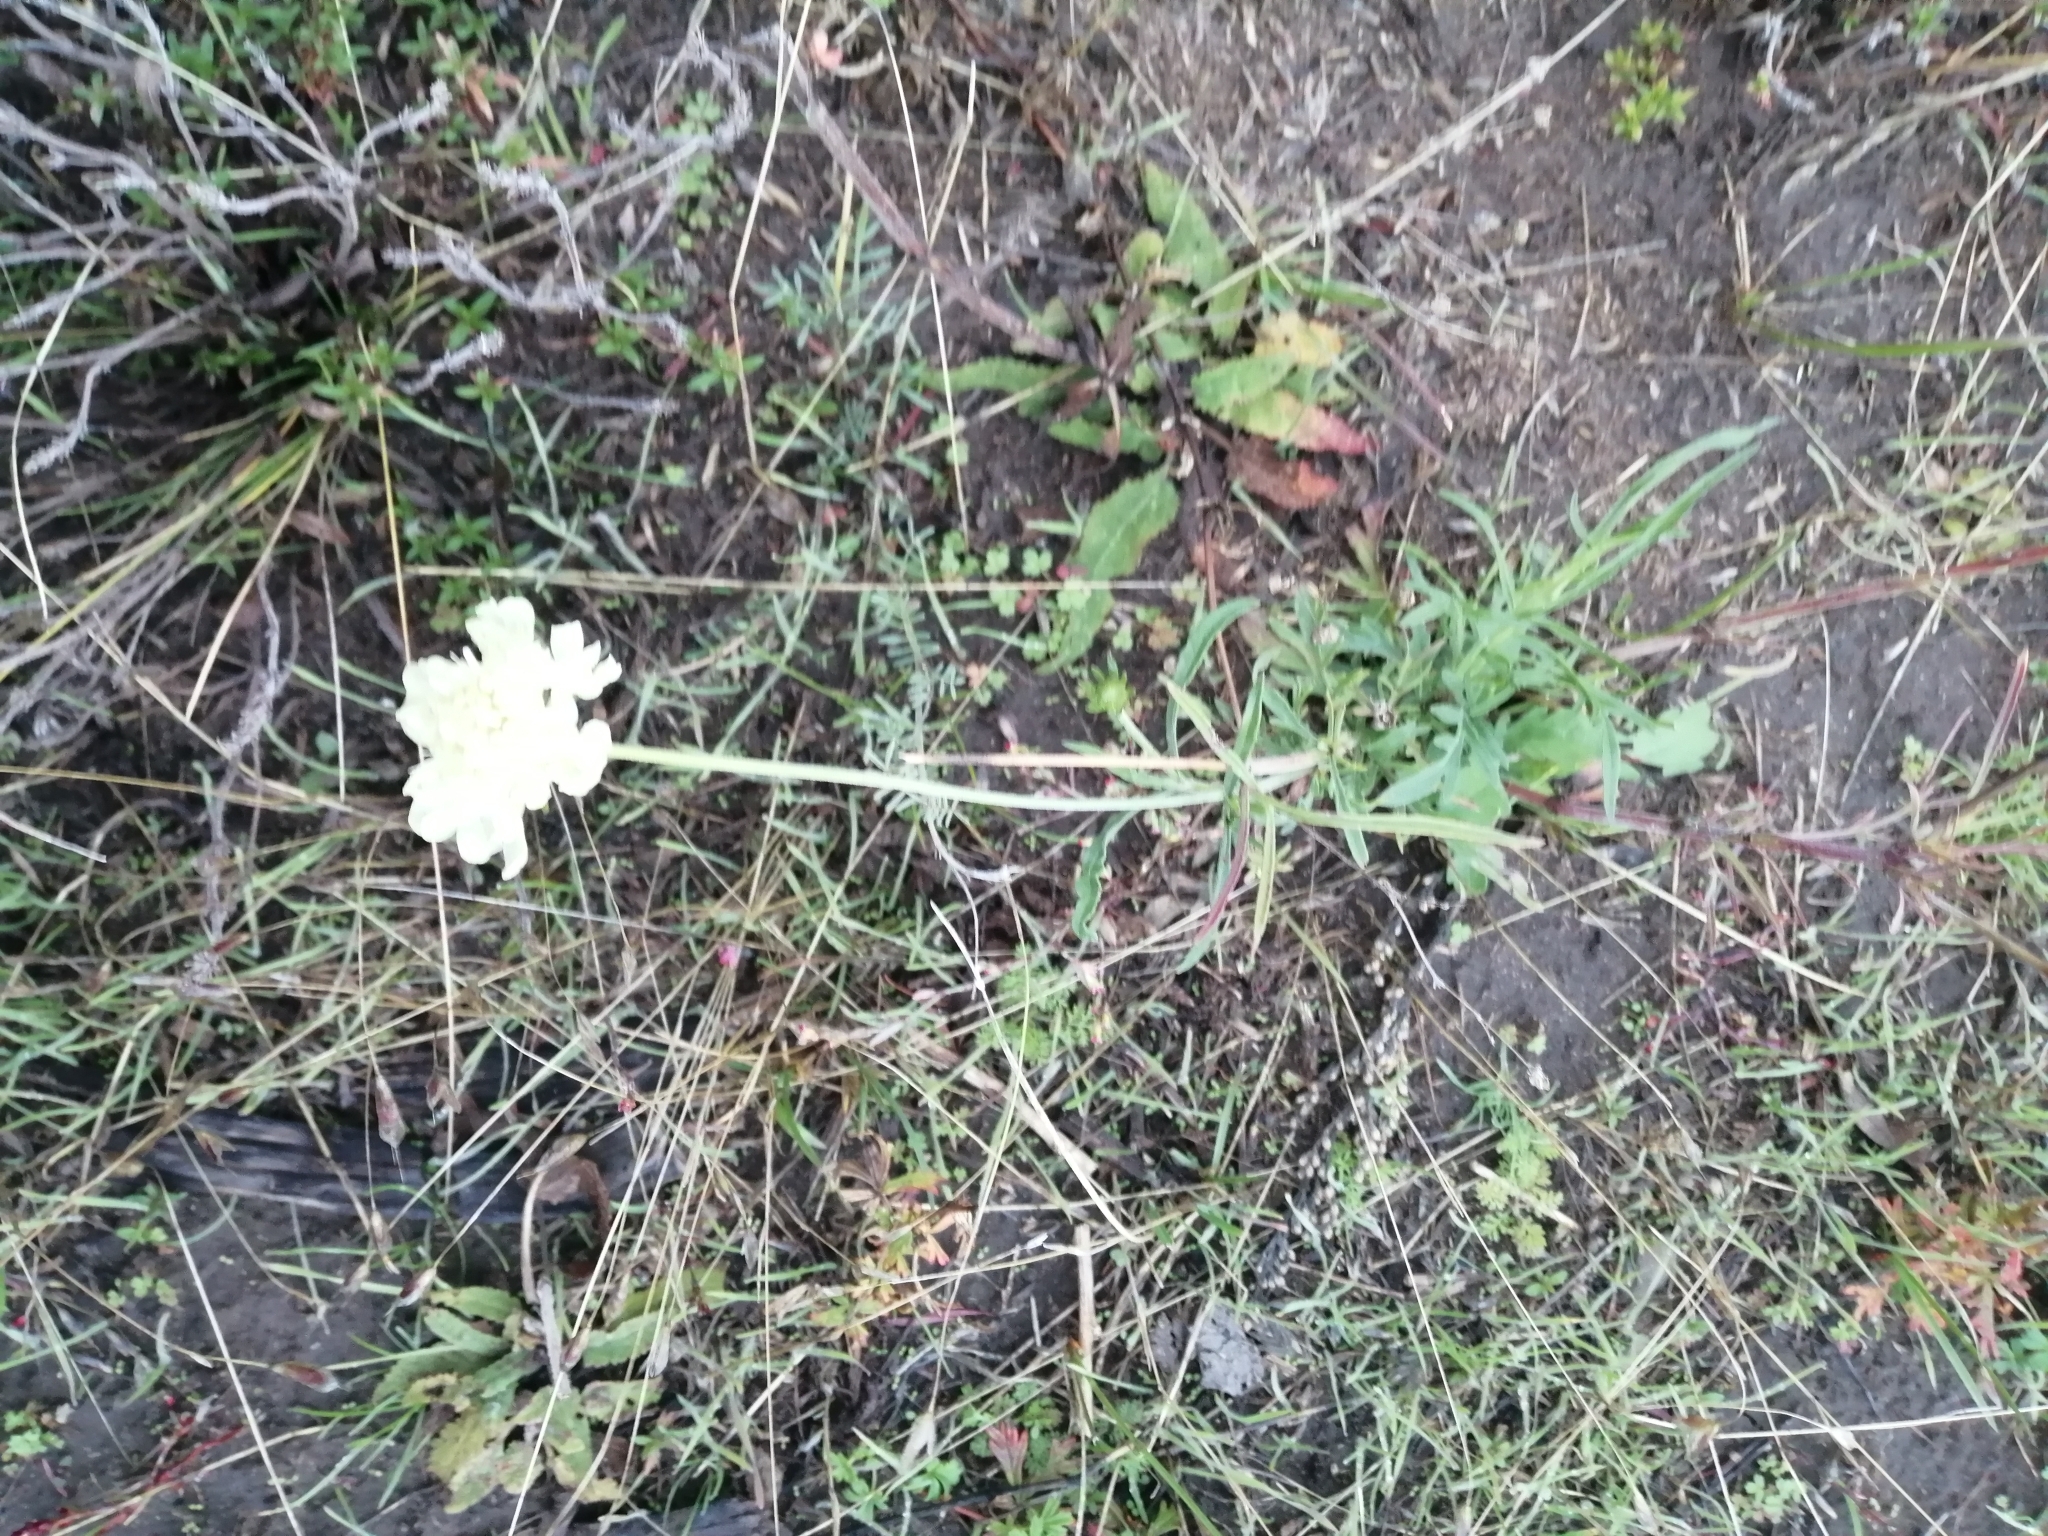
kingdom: Plantae
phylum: Tracheophyta
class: Magnoliopsida
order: Dipsacales
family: Caprifoliaceae
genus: Scabiosa
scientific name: Scabiosa ochroleuca
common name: Cream pincushions
